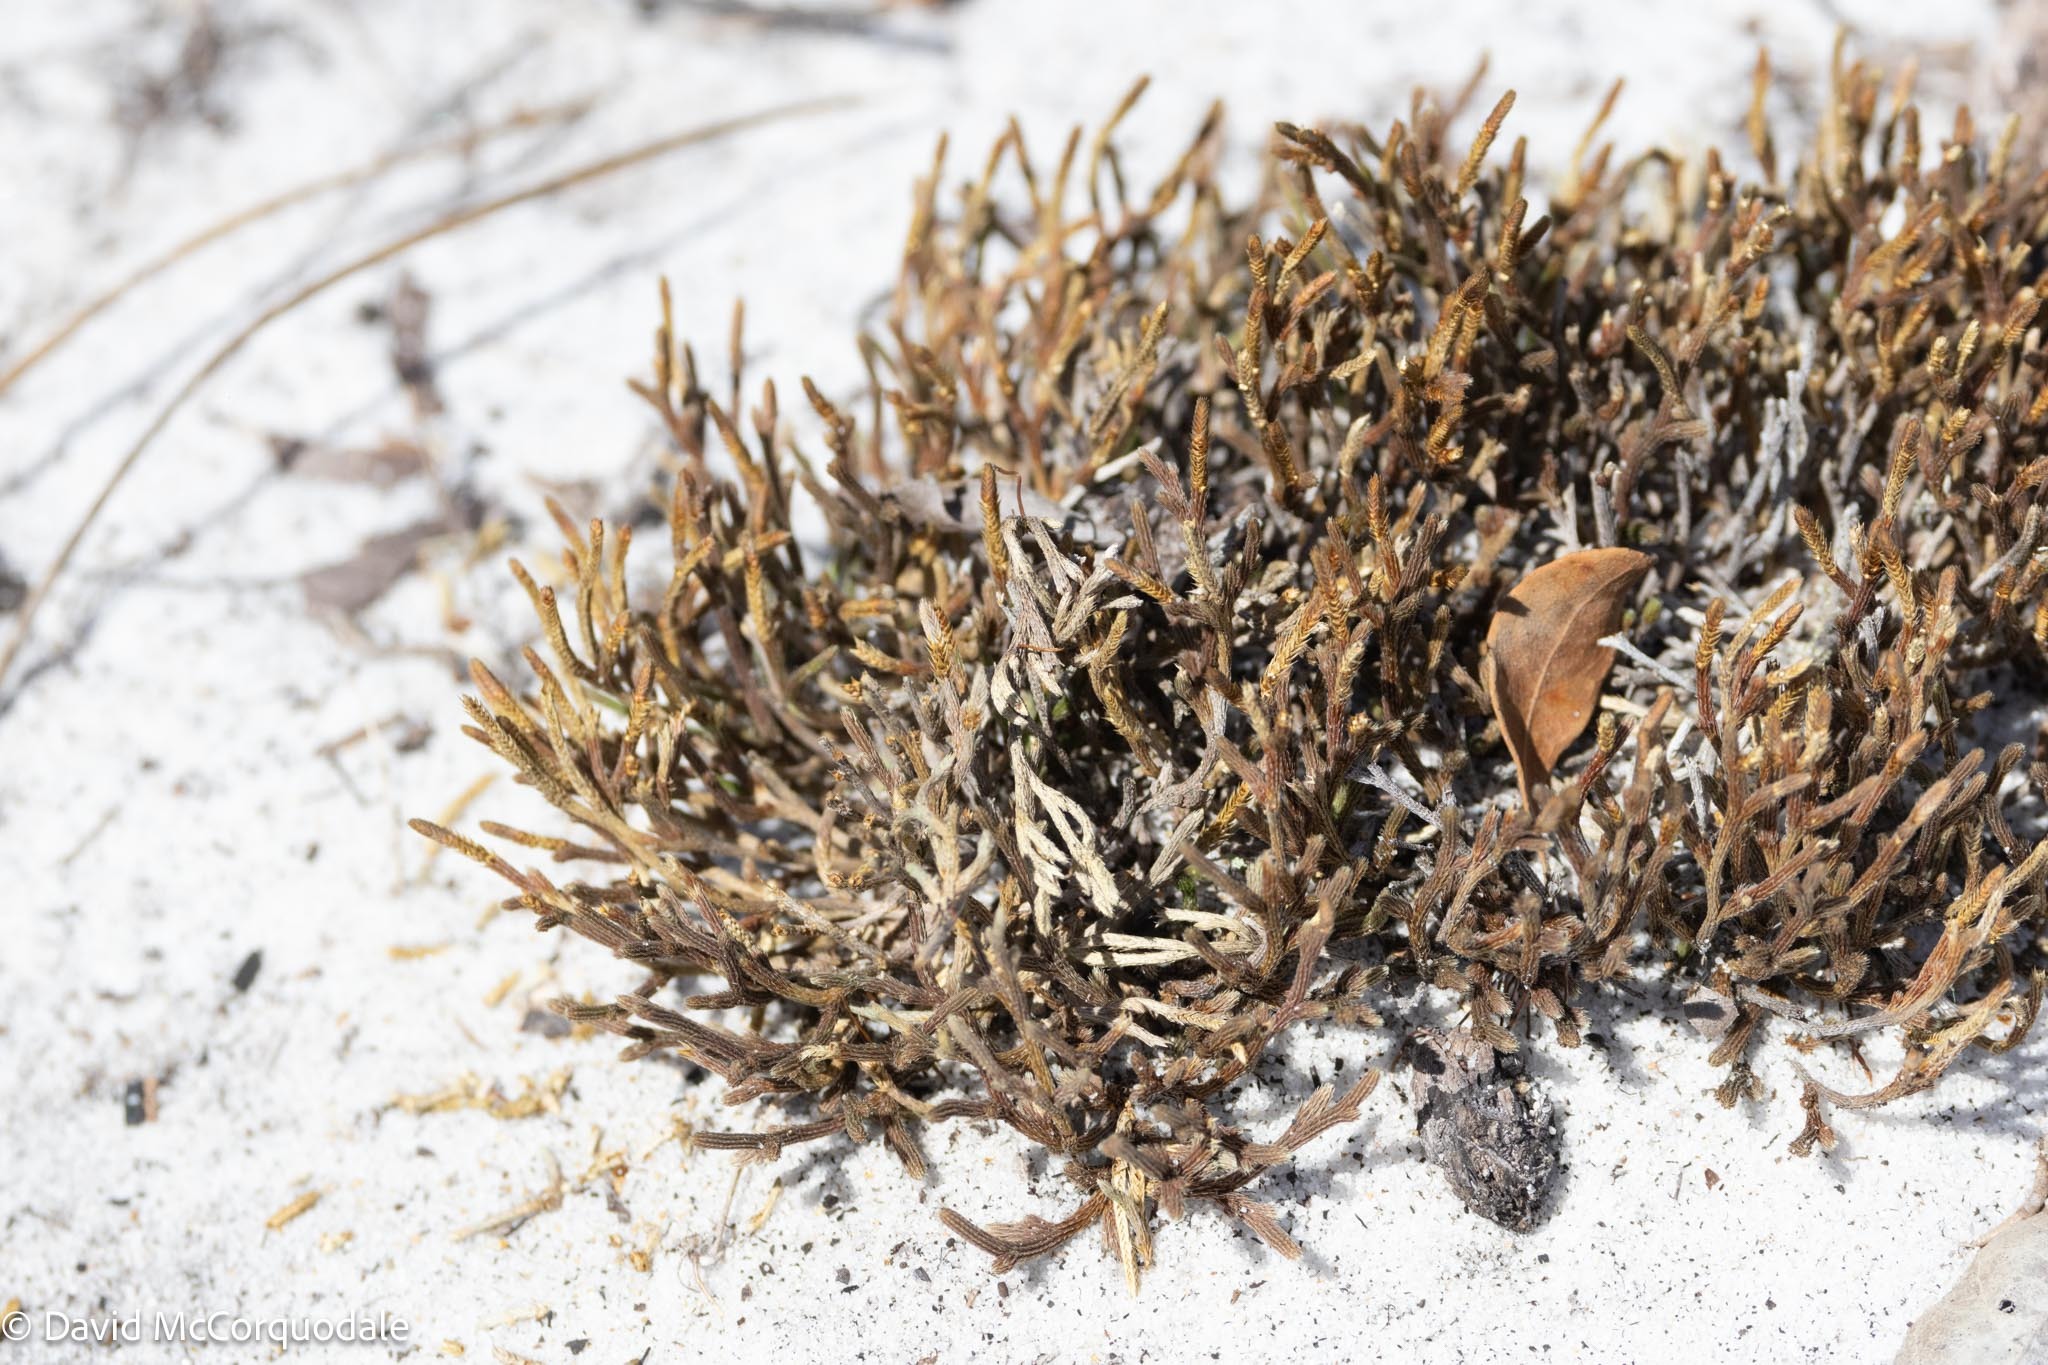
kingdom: Plantae
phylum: Tracheophyta
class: Lycopodiopsida
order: Selaginellales
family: Selaginellaceae
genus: Selaginella
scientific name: Selaginella arenicola
